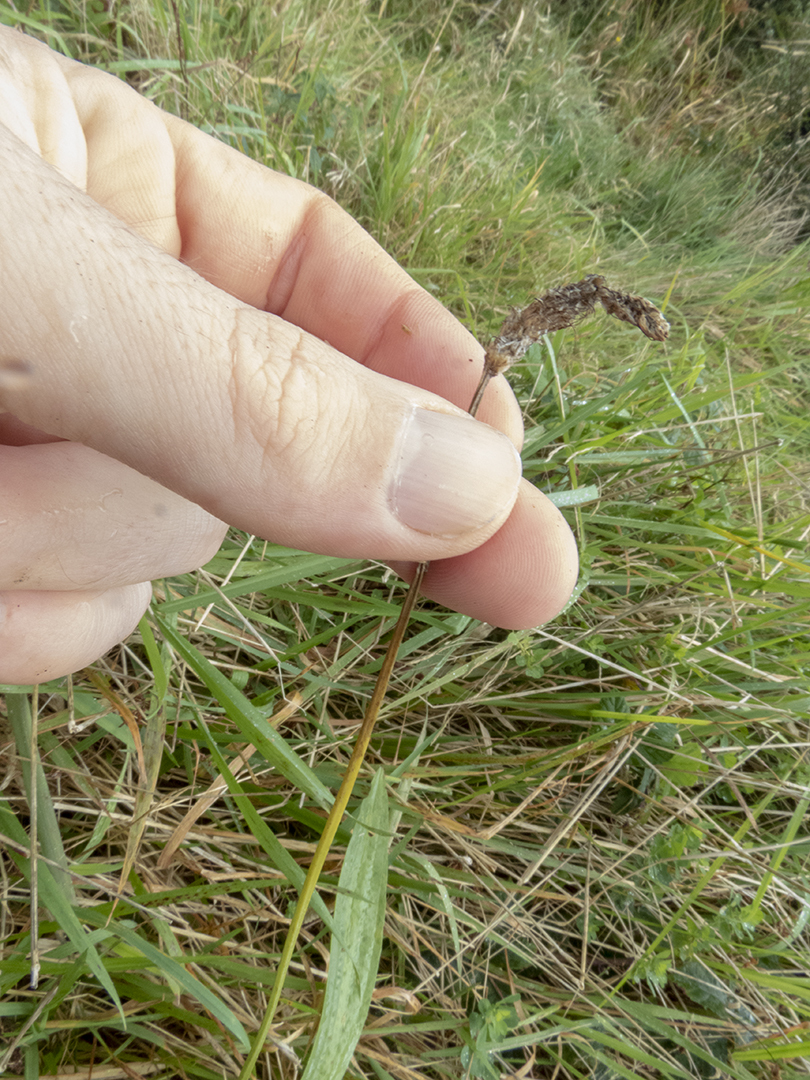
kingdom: Plantae
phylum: Tracheophyta
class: Magnoliopsida
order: Lamiales
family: Plantaginaceae
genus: Plantago
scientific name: Plantago lanceolata
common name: Ribwort plantain
